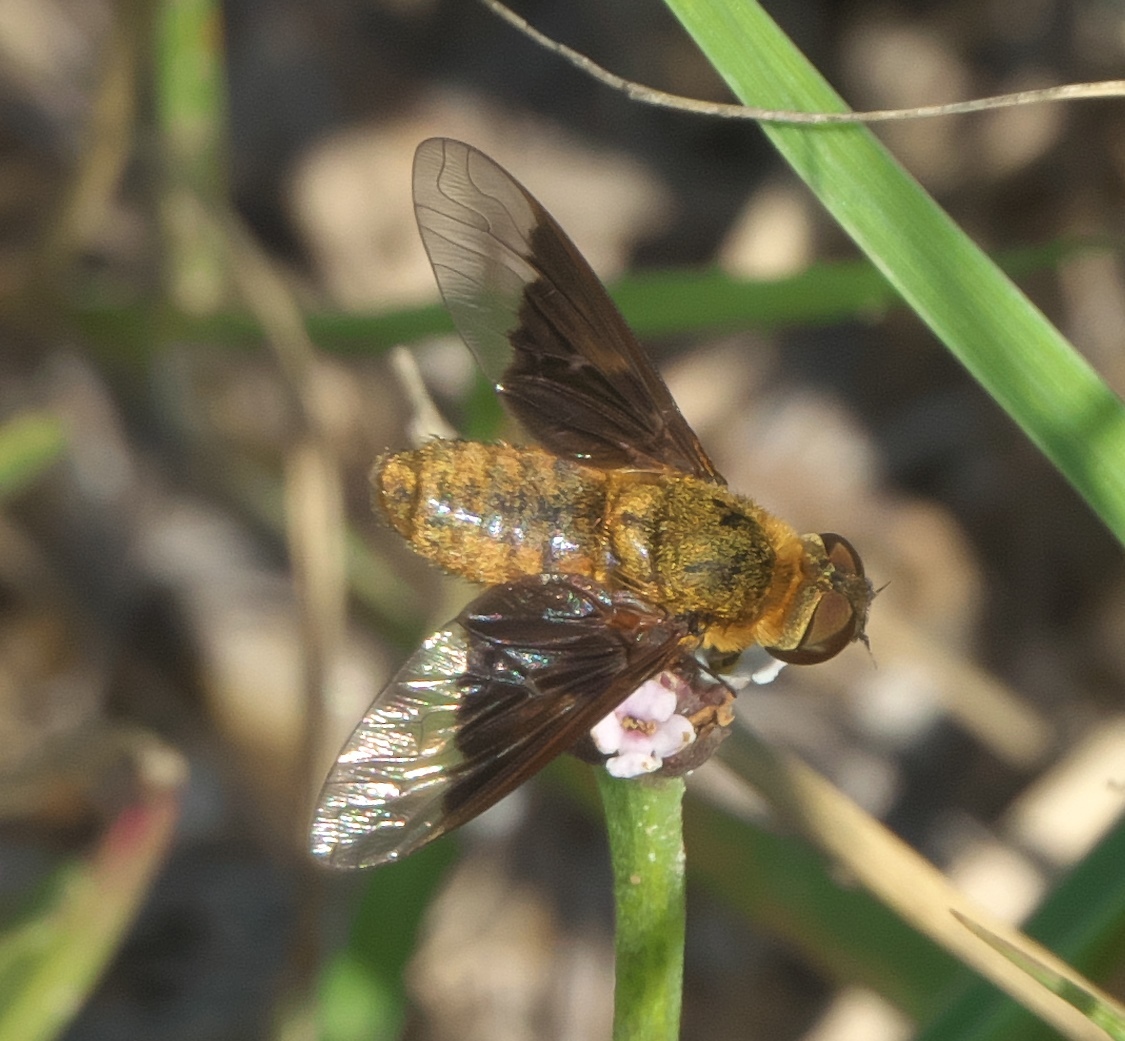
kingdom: Animalia
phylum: Arthropoda
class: Insecta
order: Diptera
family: Bombyliidae
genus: Chrysanthrax
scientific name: Chrysanthrax cypris
